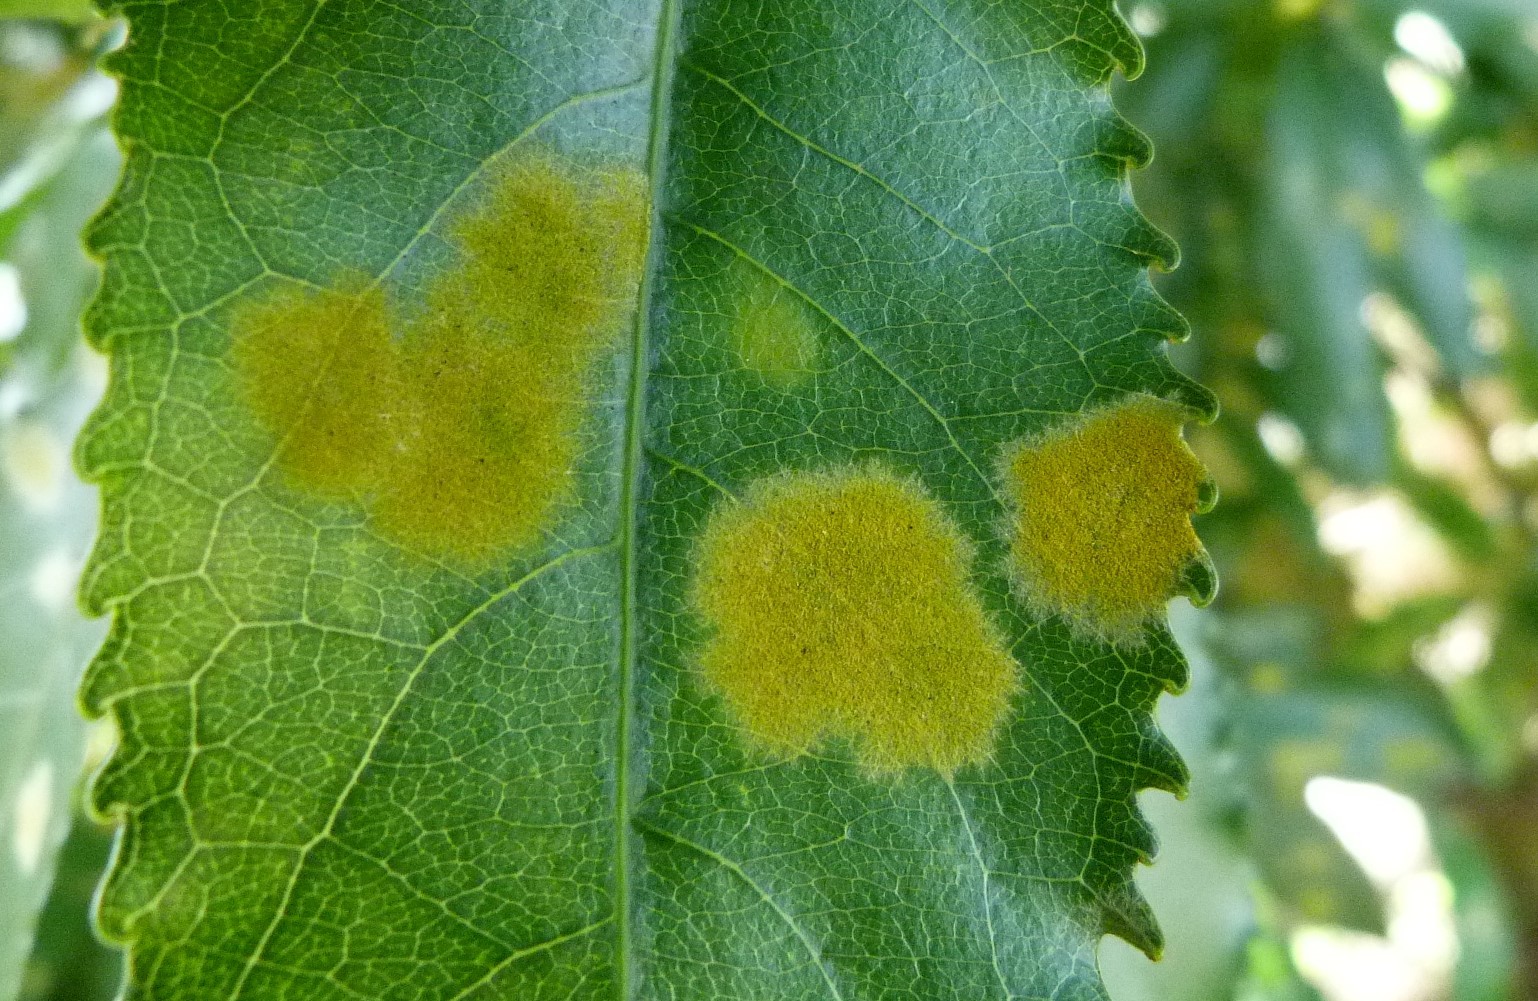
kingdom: Plantae
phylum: Chlorophyta
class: Ulvophyceae
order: Trentepohliales
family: Trentepohliaceae
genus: Cephaleuros
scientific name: Cephaleuros
